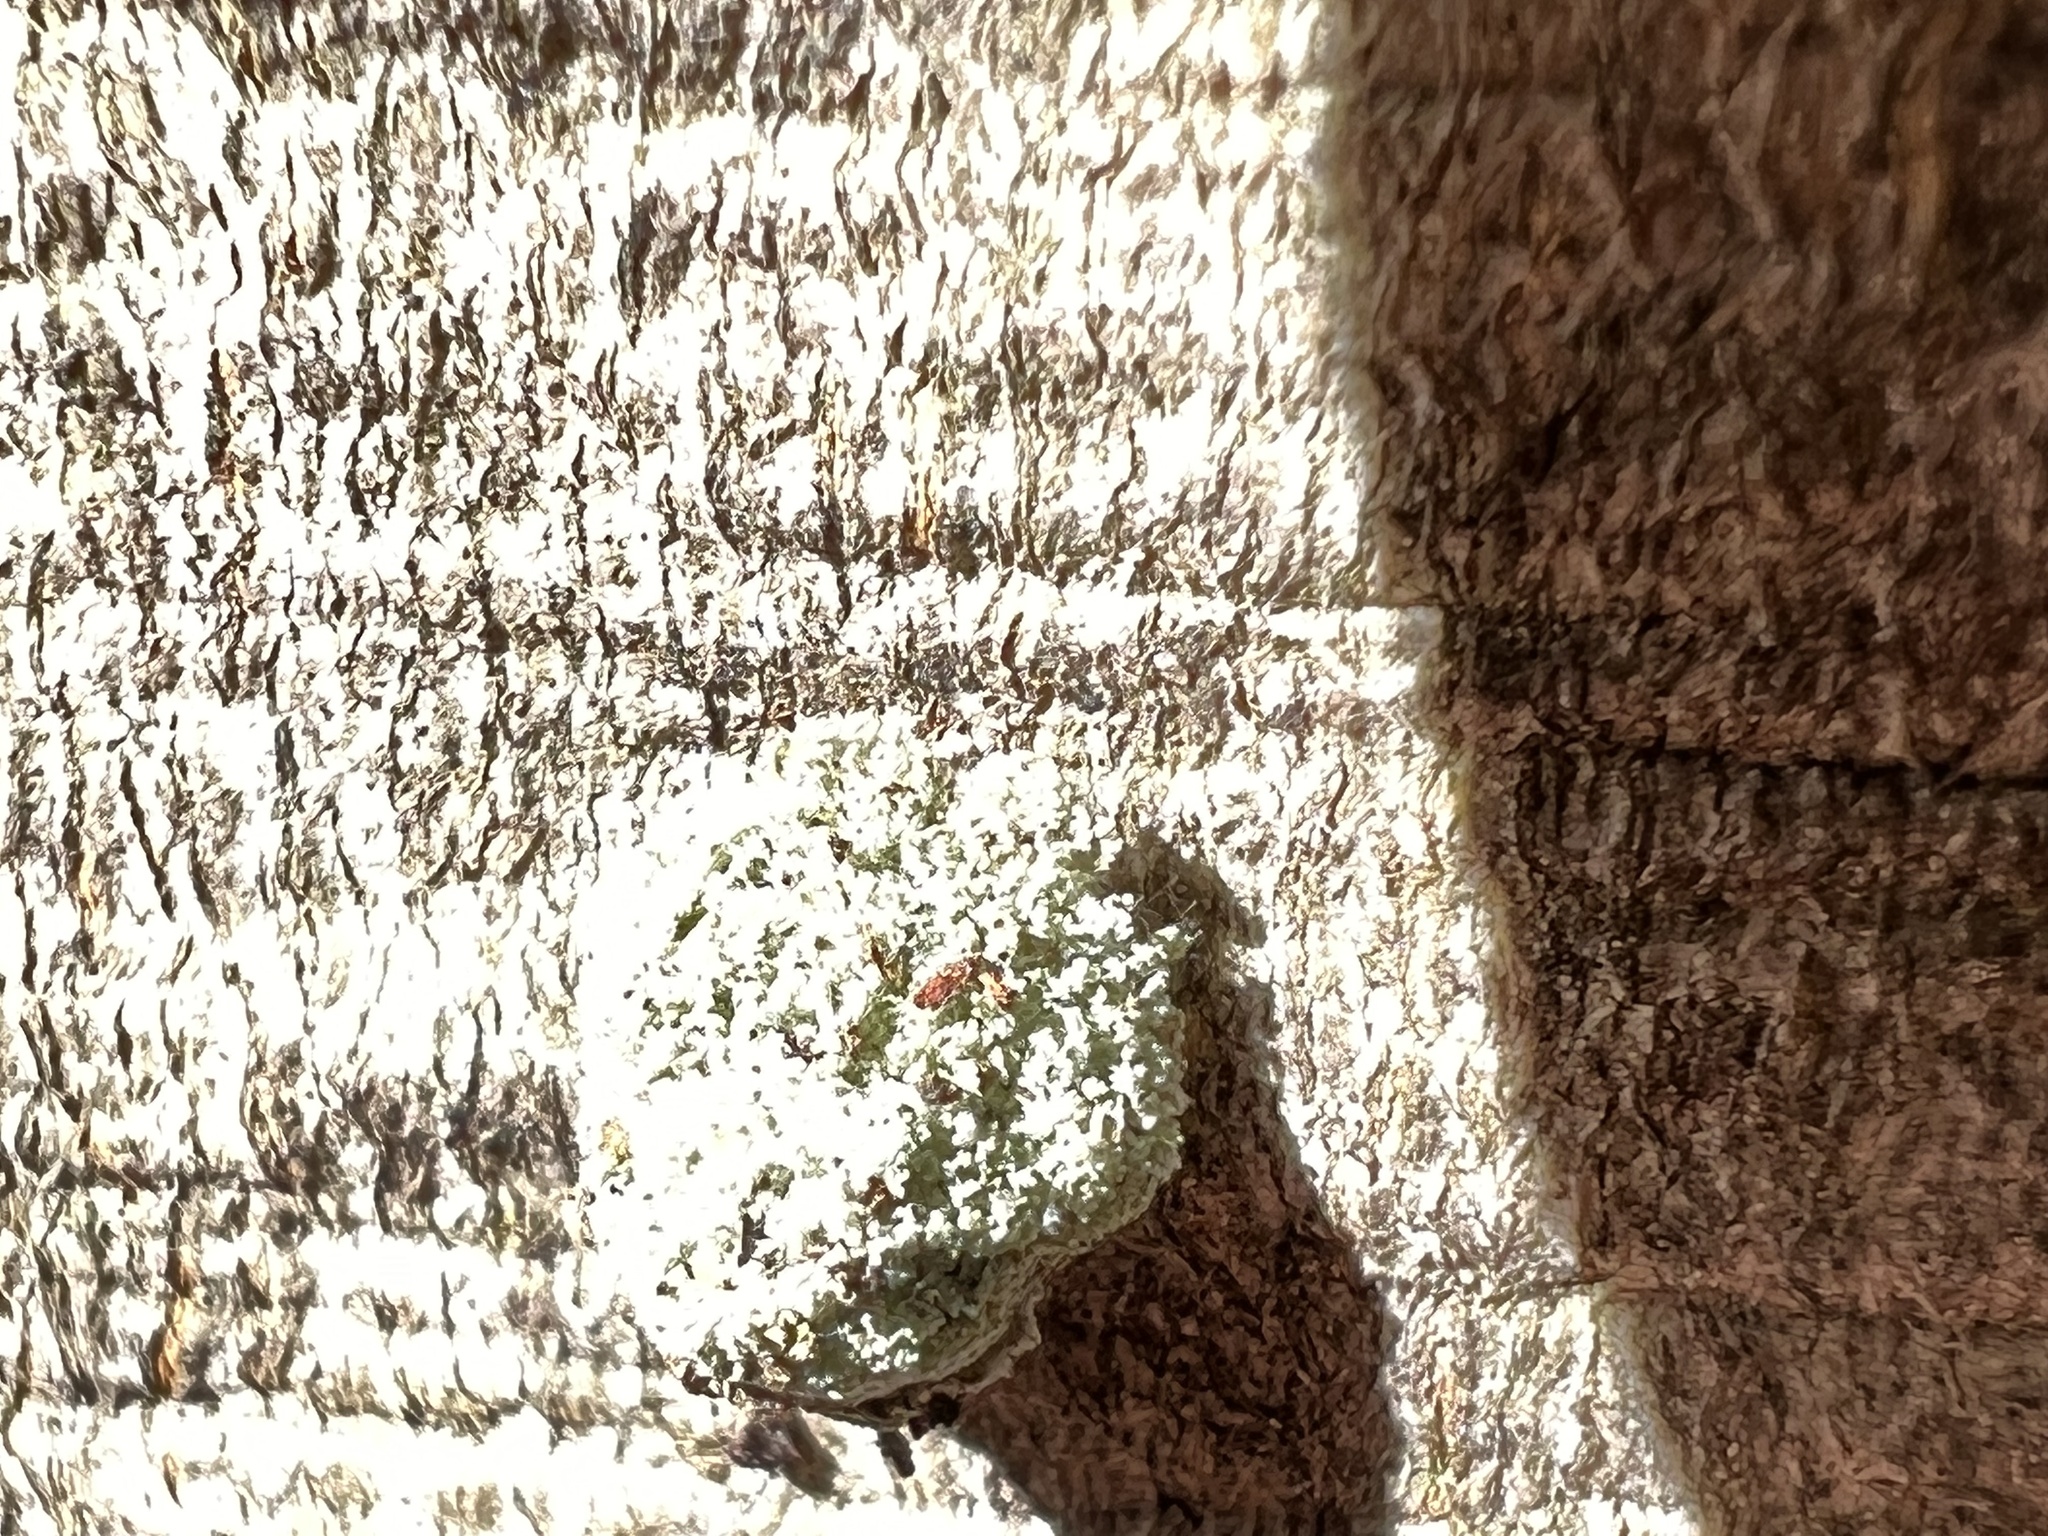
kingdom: Animalia
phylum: Arthropoda
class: Insecta
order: Neuroptera
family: Chrysopidae
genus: Leucochrysa
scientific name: Leucochrysa pavida
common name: Lichen-carrying green lacewing
